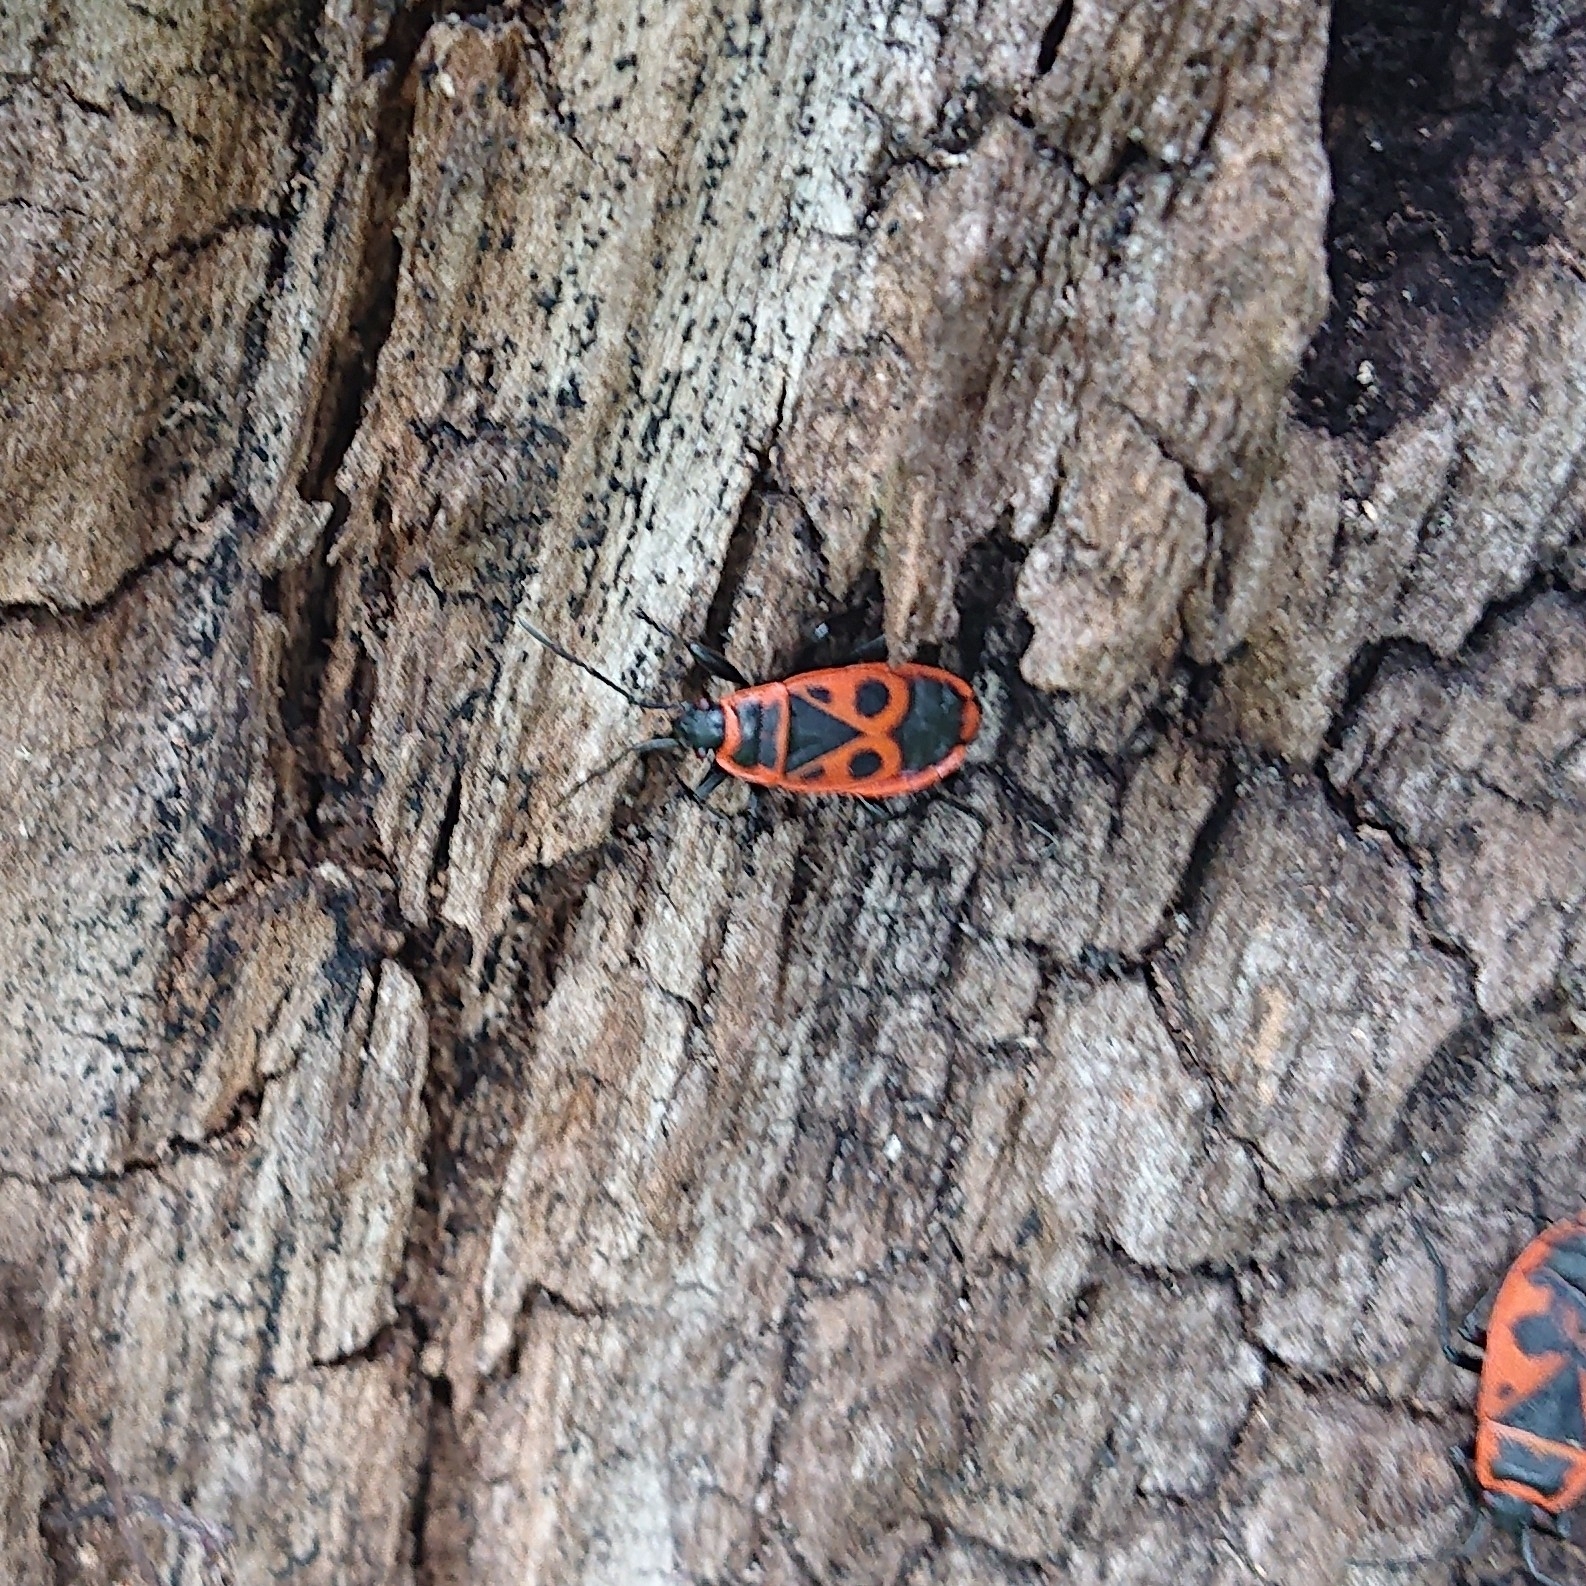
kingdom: Animalia
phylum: Arthropoda
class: Insecta
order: Hemiptera
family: Pyrrhocoridae
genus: Pyrrhocoris
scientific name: Pyrrhocoris apterus
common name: Firebug
